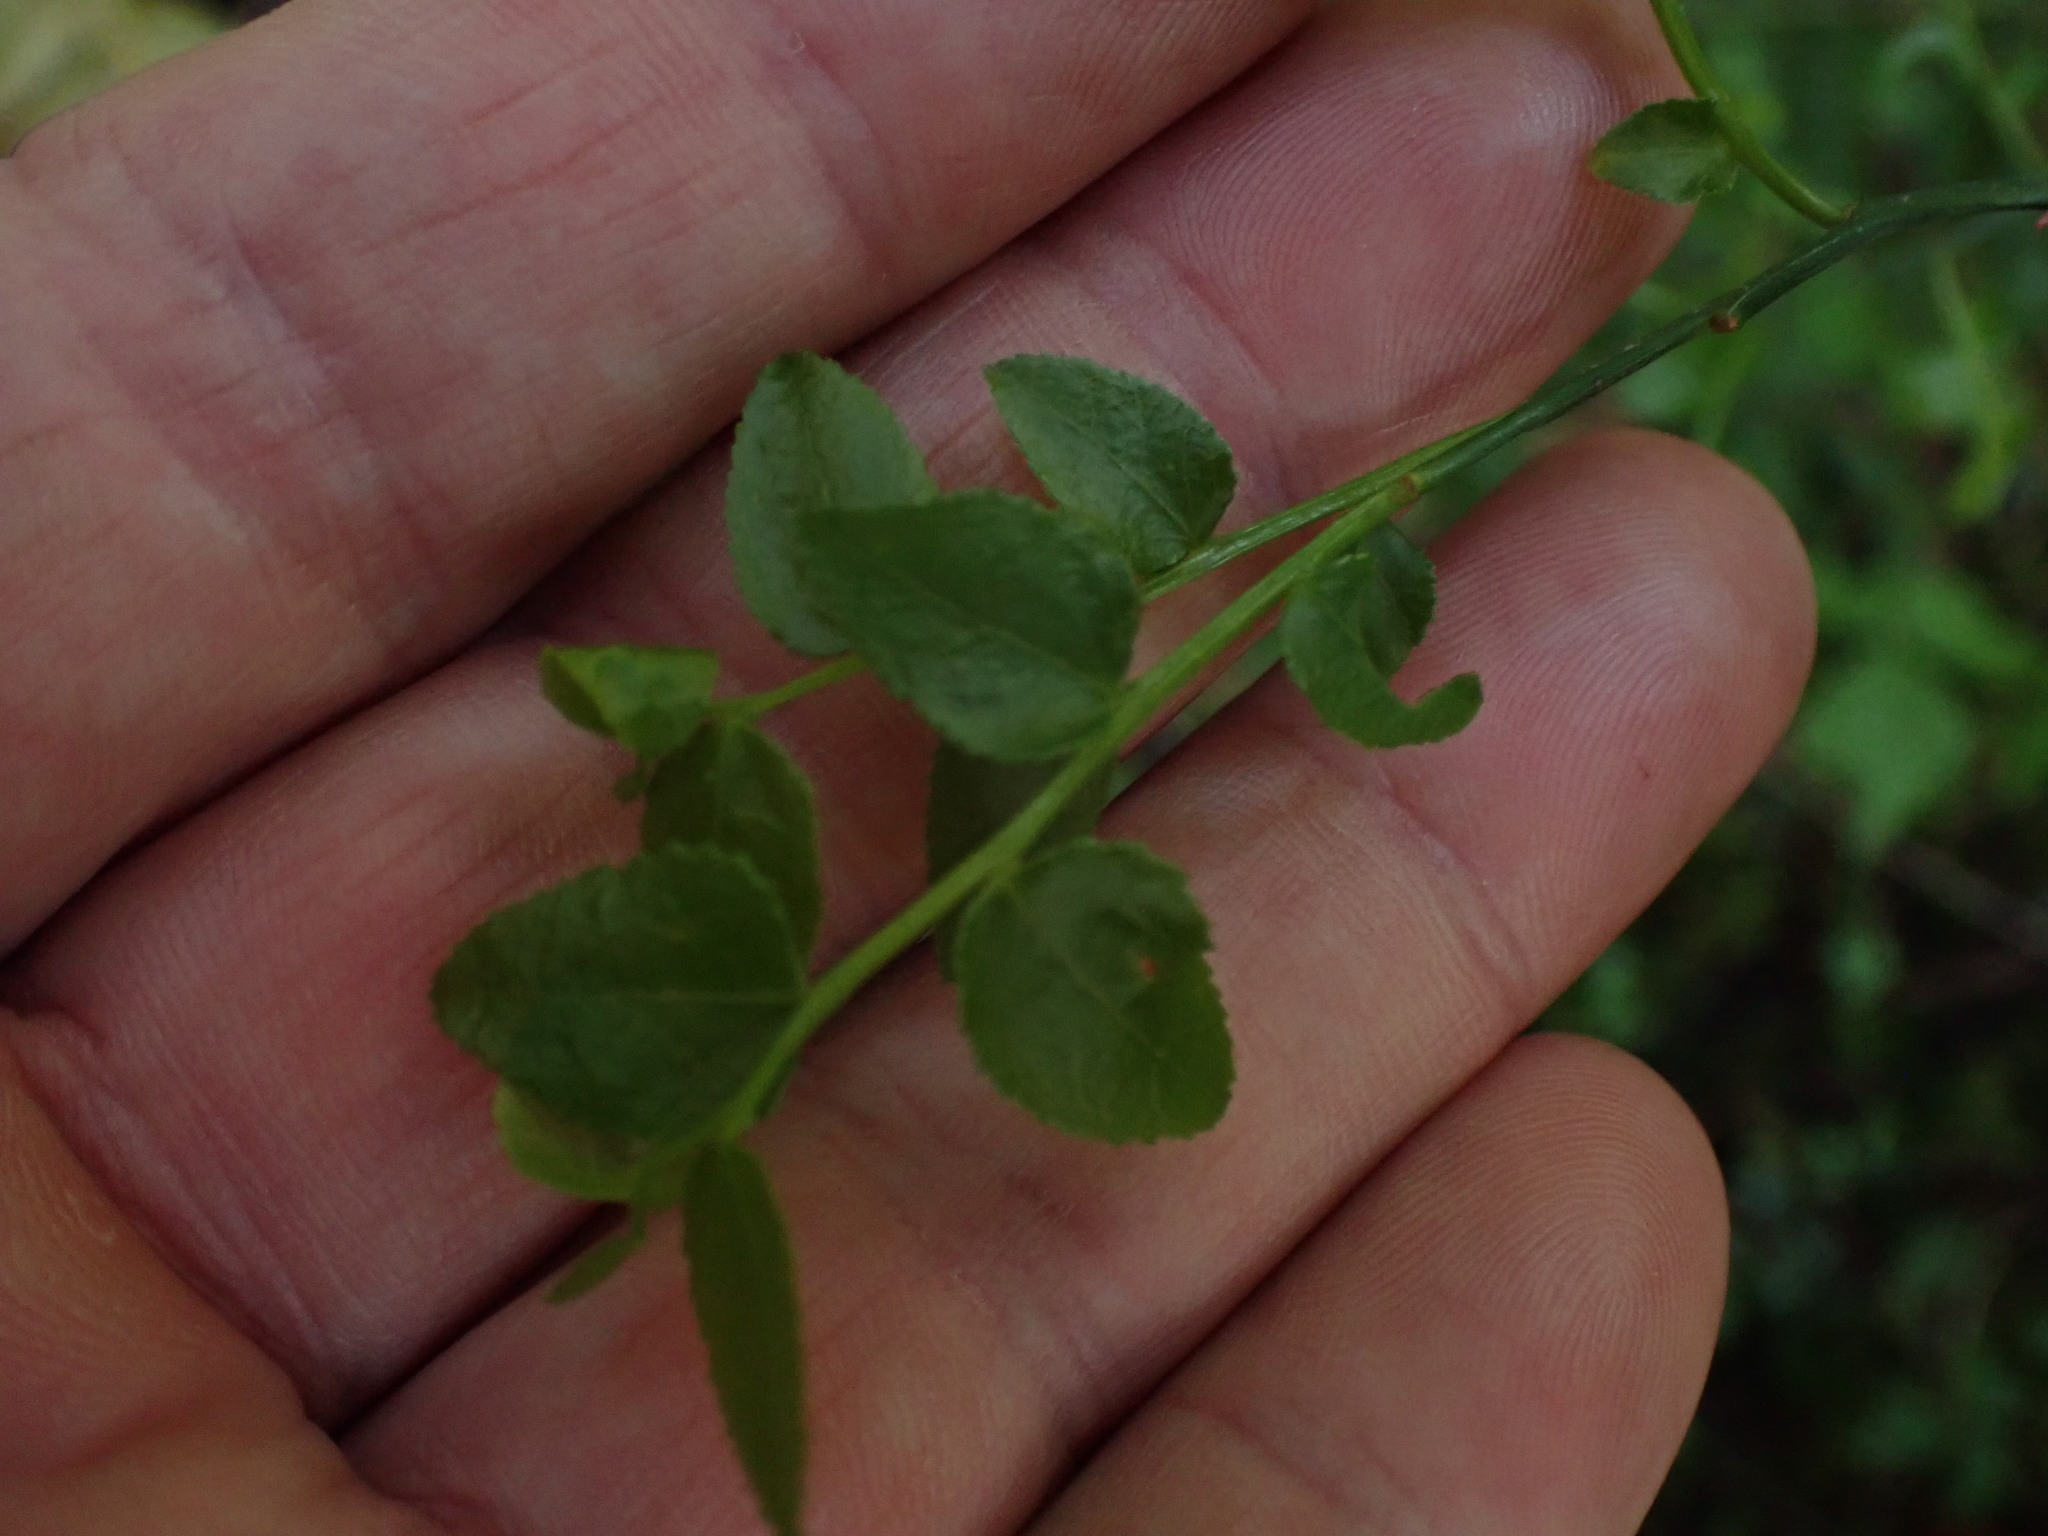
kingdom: Plantae
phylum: Tracheophyta
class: Magnoliopsida
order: Ericales
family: Ericaceae
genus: Vaccinium
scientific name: Vaccinium parvifolium
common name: Red-huckleberry
